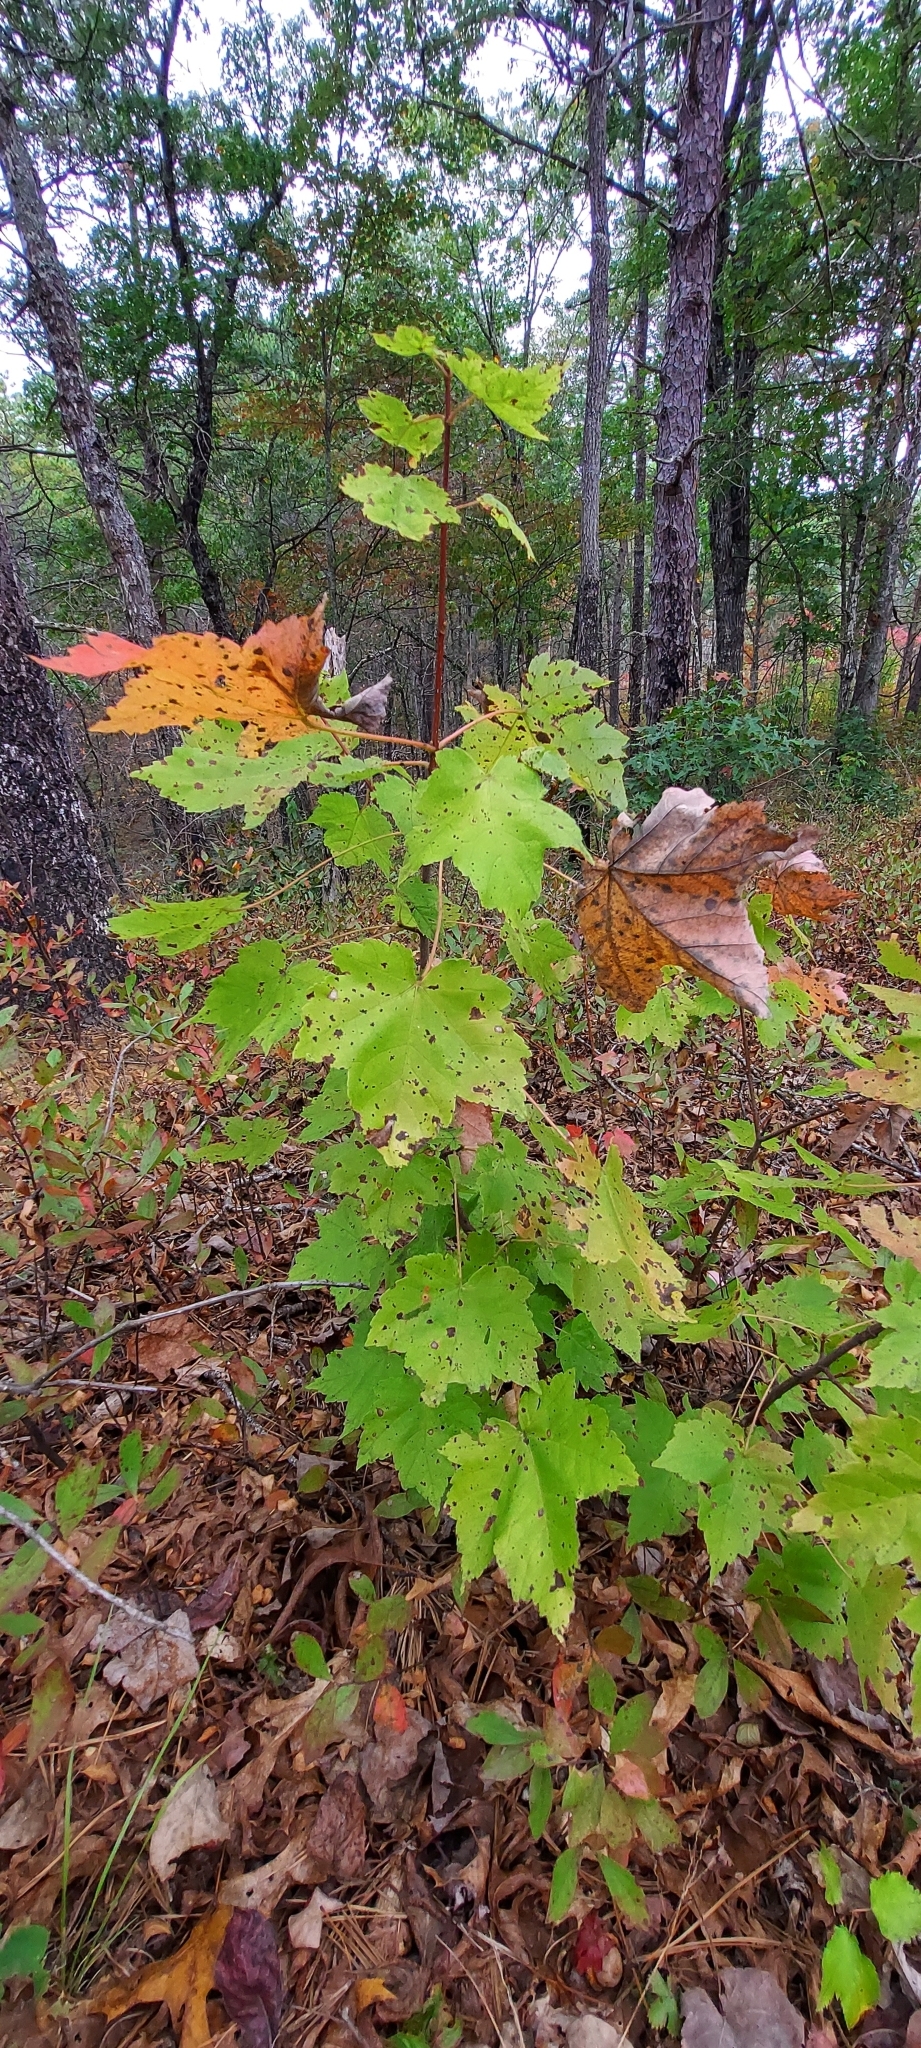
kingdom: Plantae
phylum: Tracheophyta
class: Magnoliopsida
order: Sapindales
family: Sapindaceae
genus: Acer
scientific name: Acer rubrum
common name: Red maple
